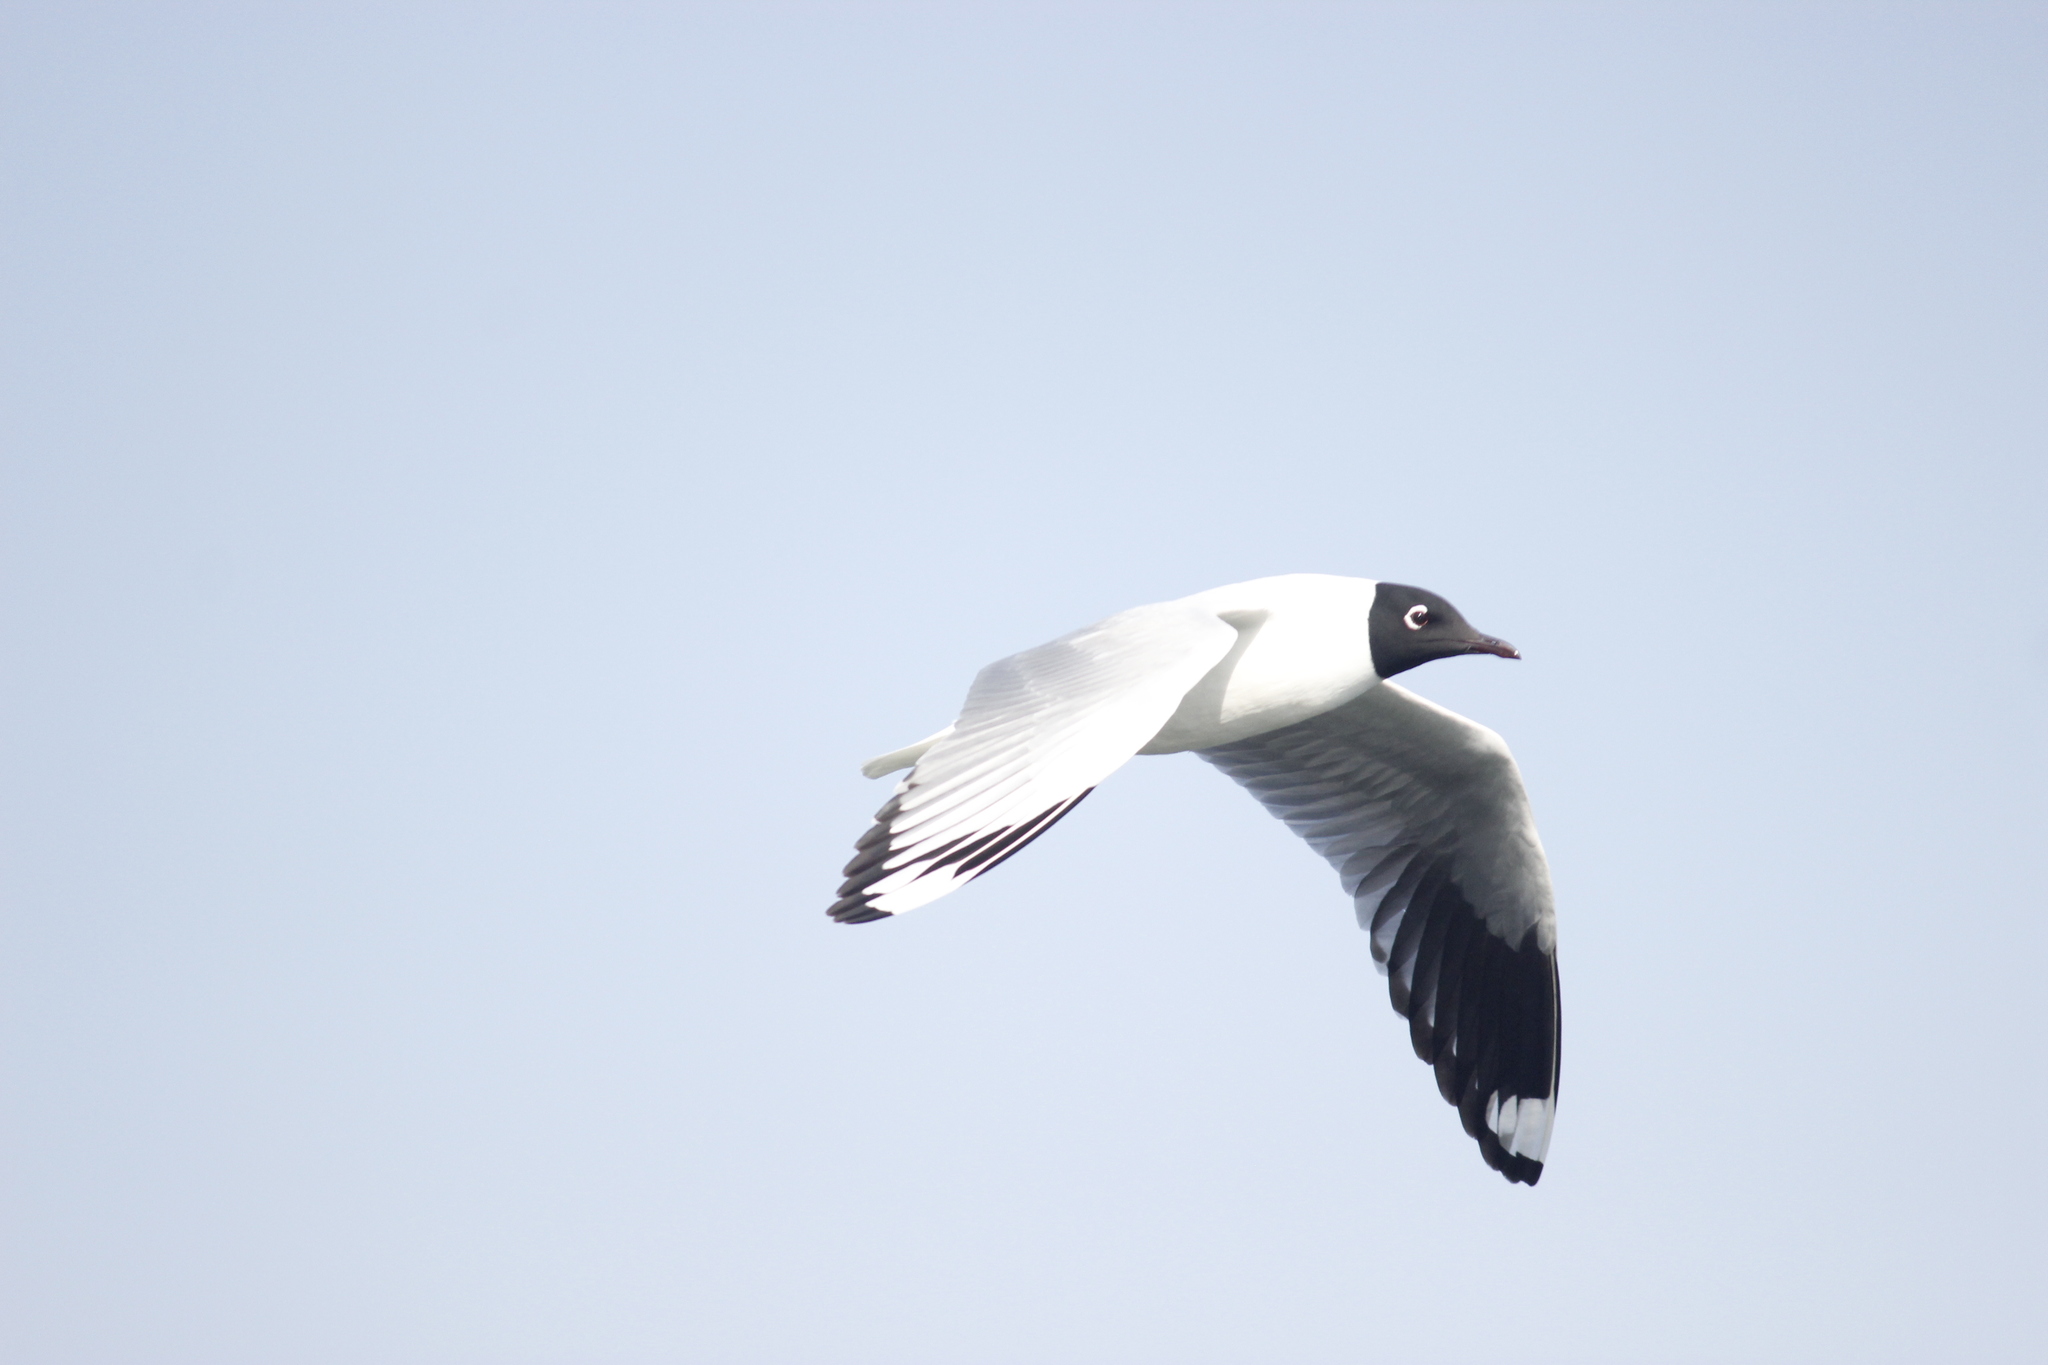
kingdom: Animalia
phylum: Chordata
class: Aves
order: Charadriiformes
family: Laridae
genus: Chroicocephalus
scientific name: Chroicocephalus serranus
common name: Andean gull
